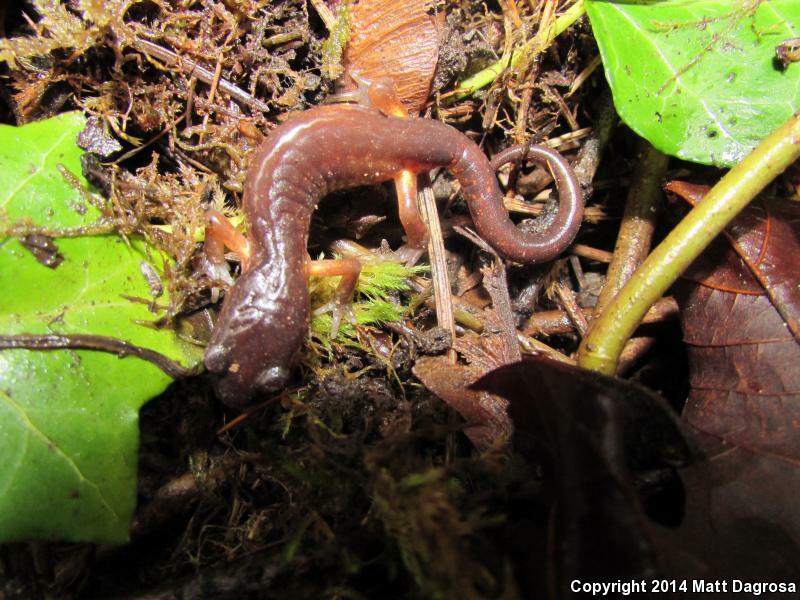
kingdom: Animalia
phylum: Chordata
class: Amphibia
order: Caudata
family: Plethodontidae
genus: Ensatina
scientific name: Ensatina eschscholtzii
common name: Ensatina
